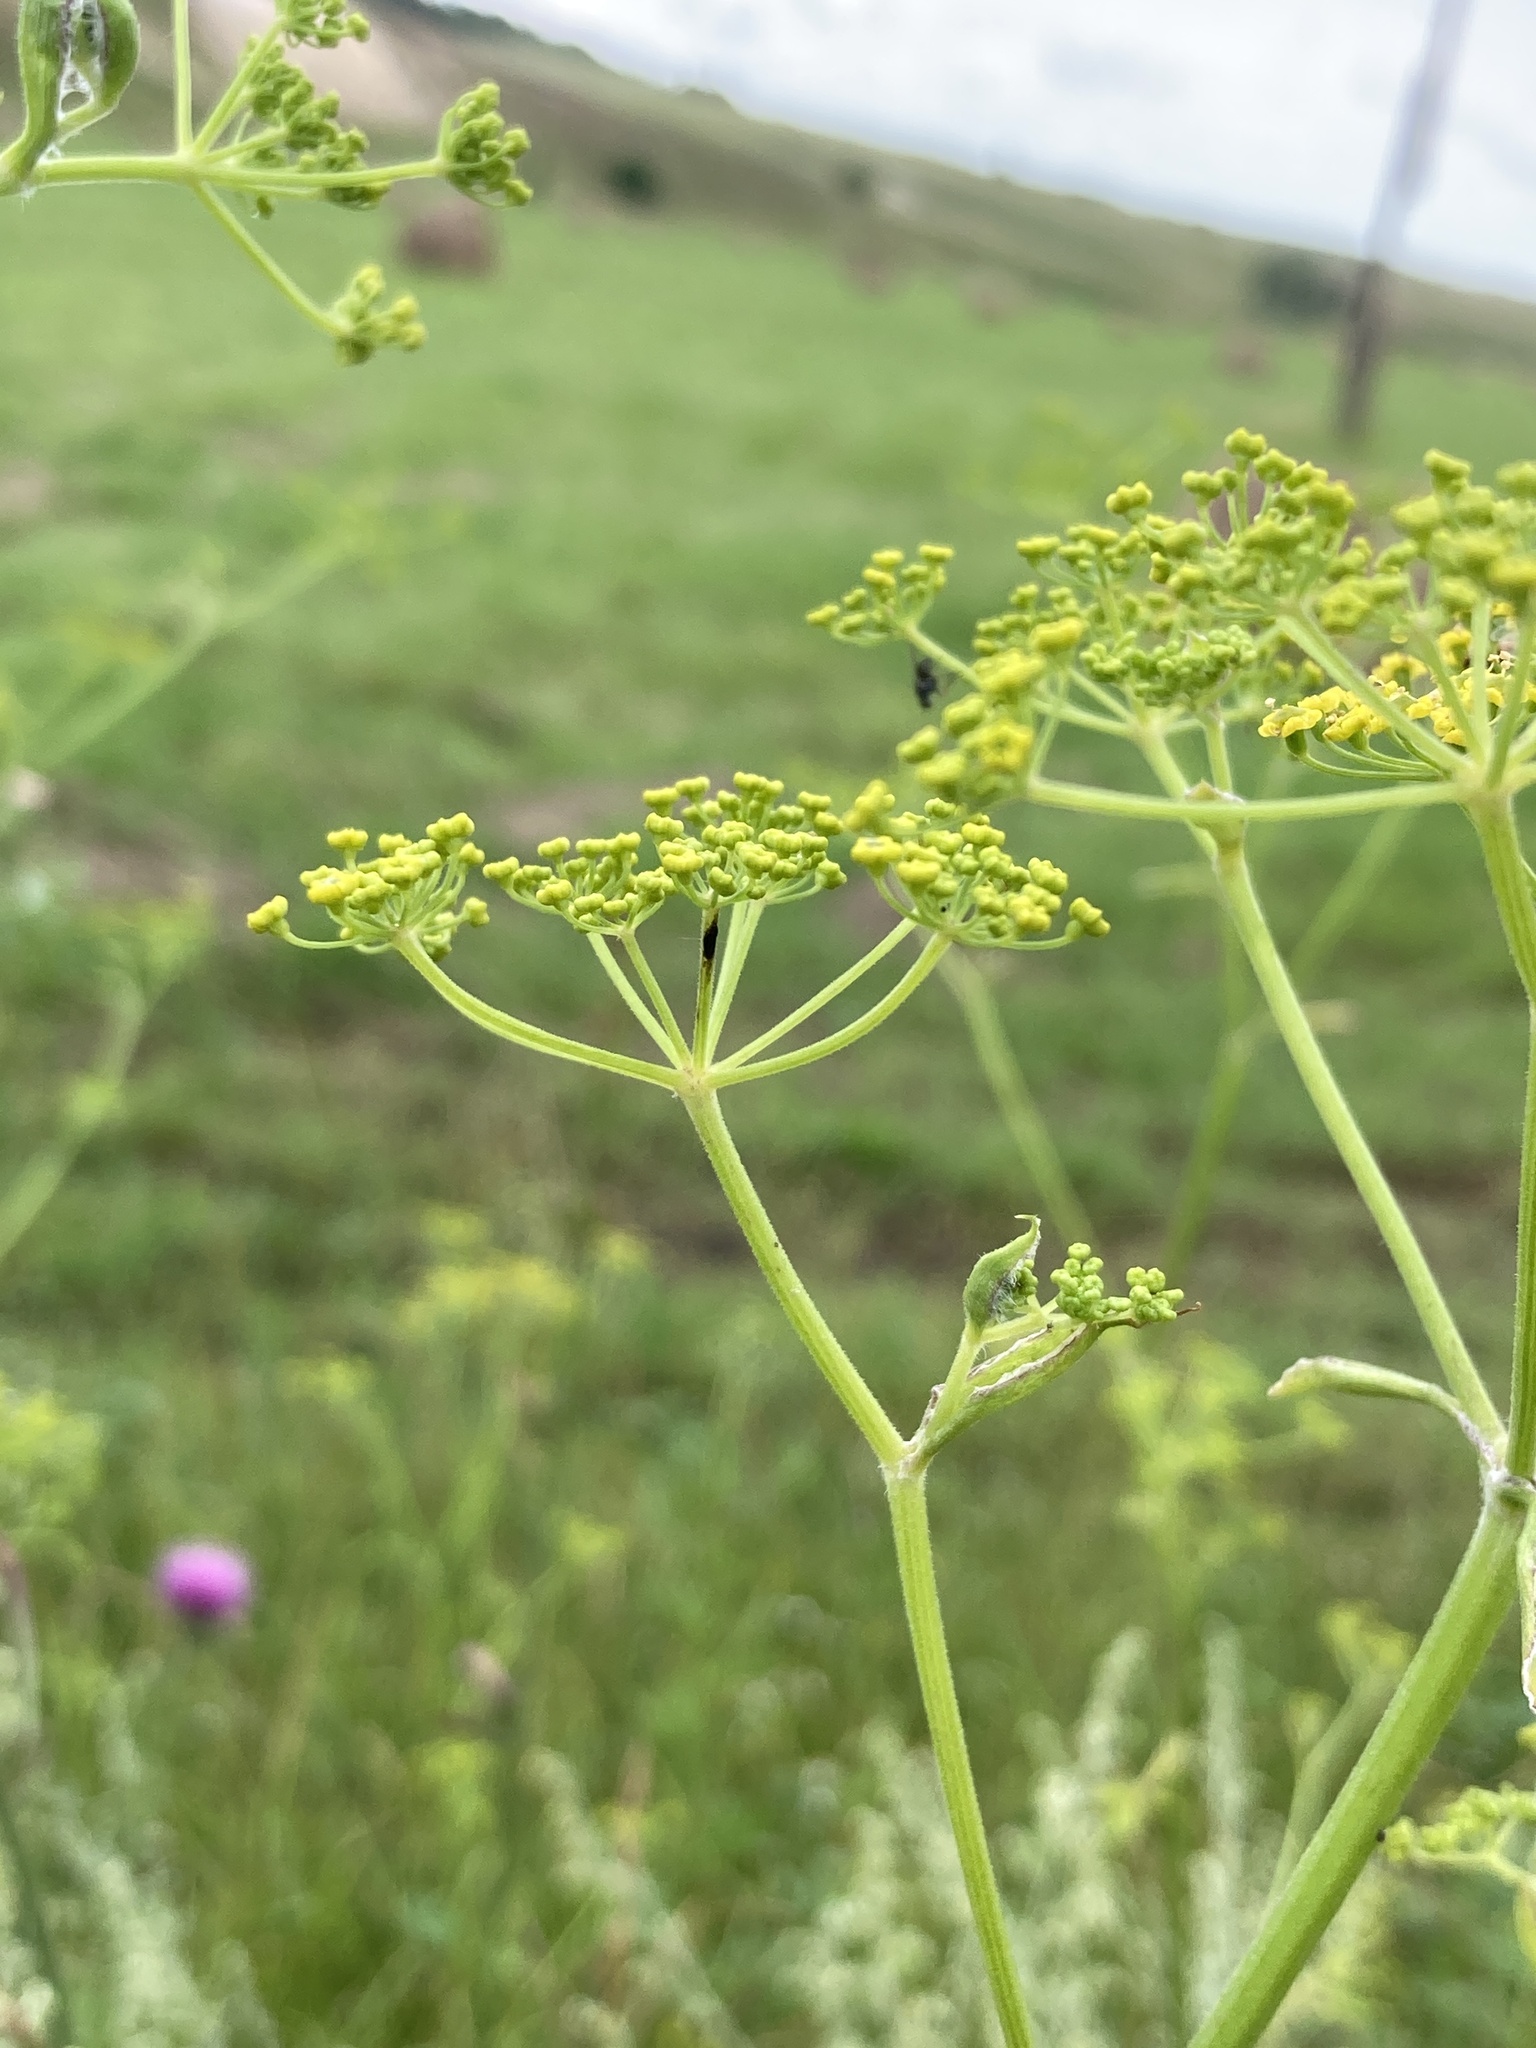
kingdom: Plantae
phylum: Tracheophyta
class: Magnoliopsida
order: Apiales
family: Apiaceae
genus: Pastinaca
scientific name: Pastinaca sativa
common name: Wild parsnip
